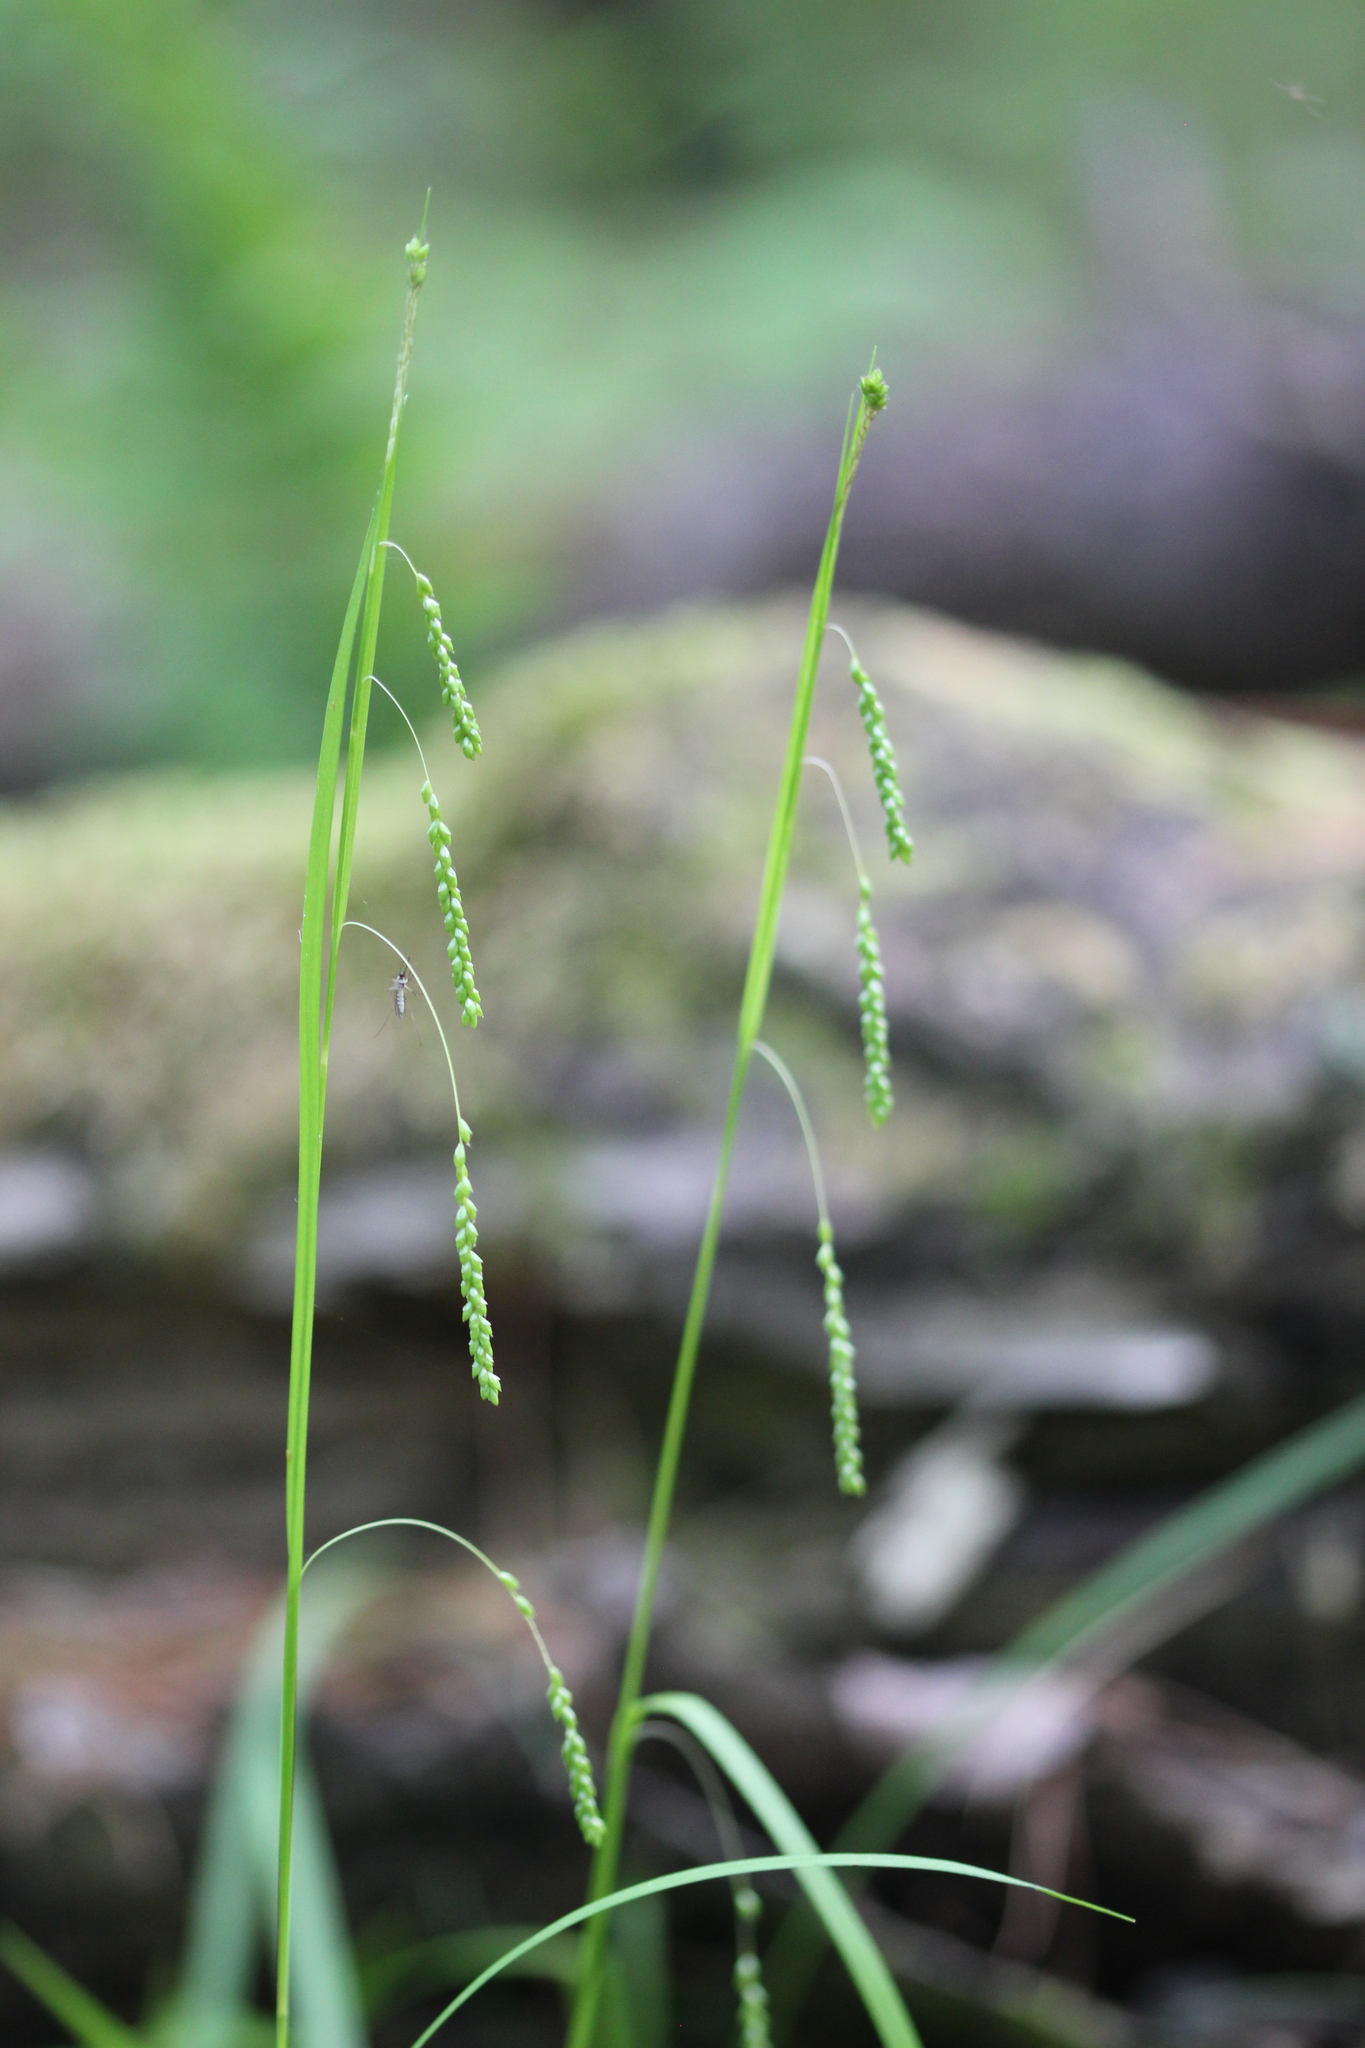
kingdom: Plantae
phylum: Tracheophyta
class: Liliopsida
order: Poales
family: Cyperaceae
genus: Carex
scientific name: Carex gracillima
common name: Graceful sedge
